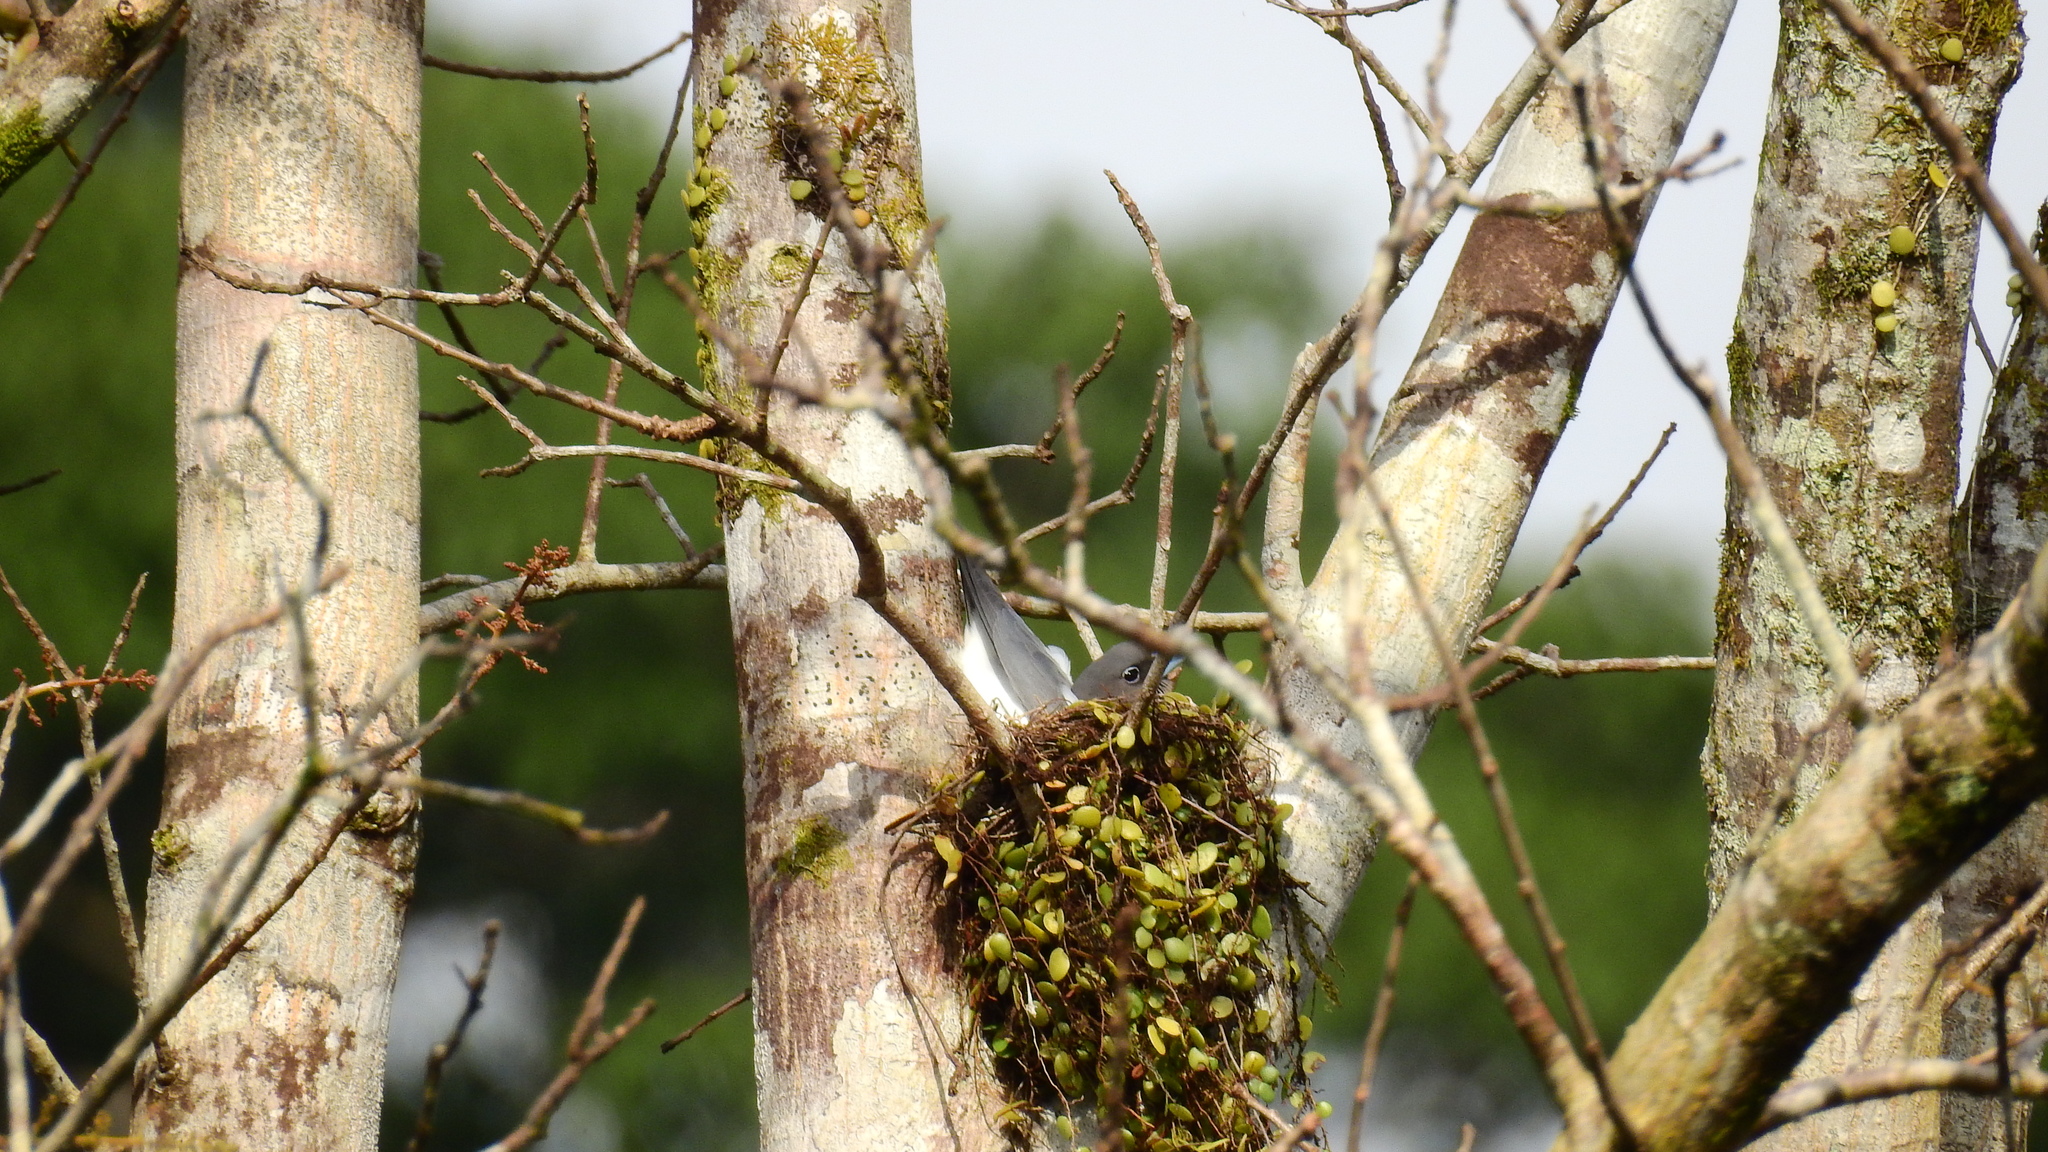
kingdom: Animalia
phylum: Chordata
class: Aves
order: Passeriformes
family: Artamidae
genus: Artamus
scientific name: Artamus monachus
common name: Ivory-backed woodswallow
